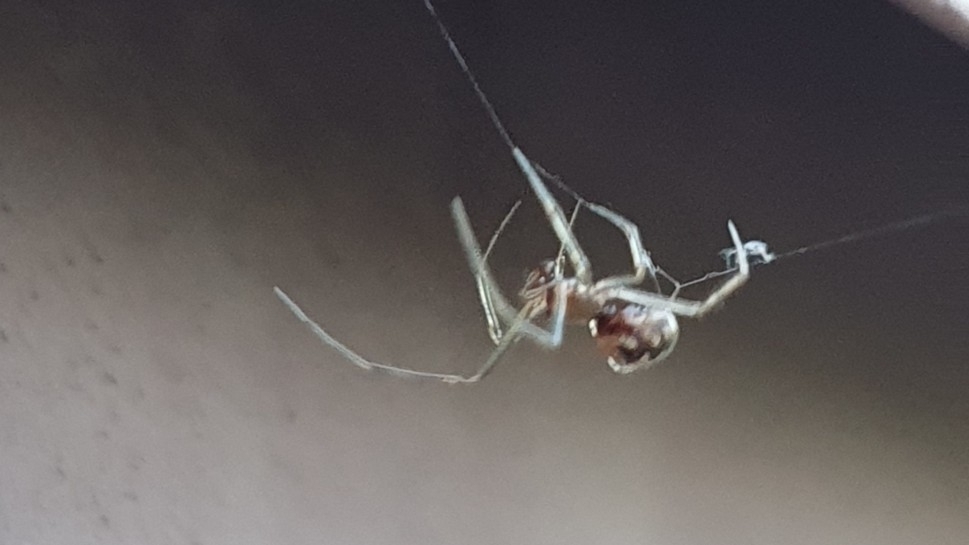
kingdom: Animalia
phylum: Arthropoda
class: Arachnida
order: Araneae
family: Theridiidae
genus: Steatoda
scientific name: Steatoda triangulosa
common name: Triangulate bud spider
